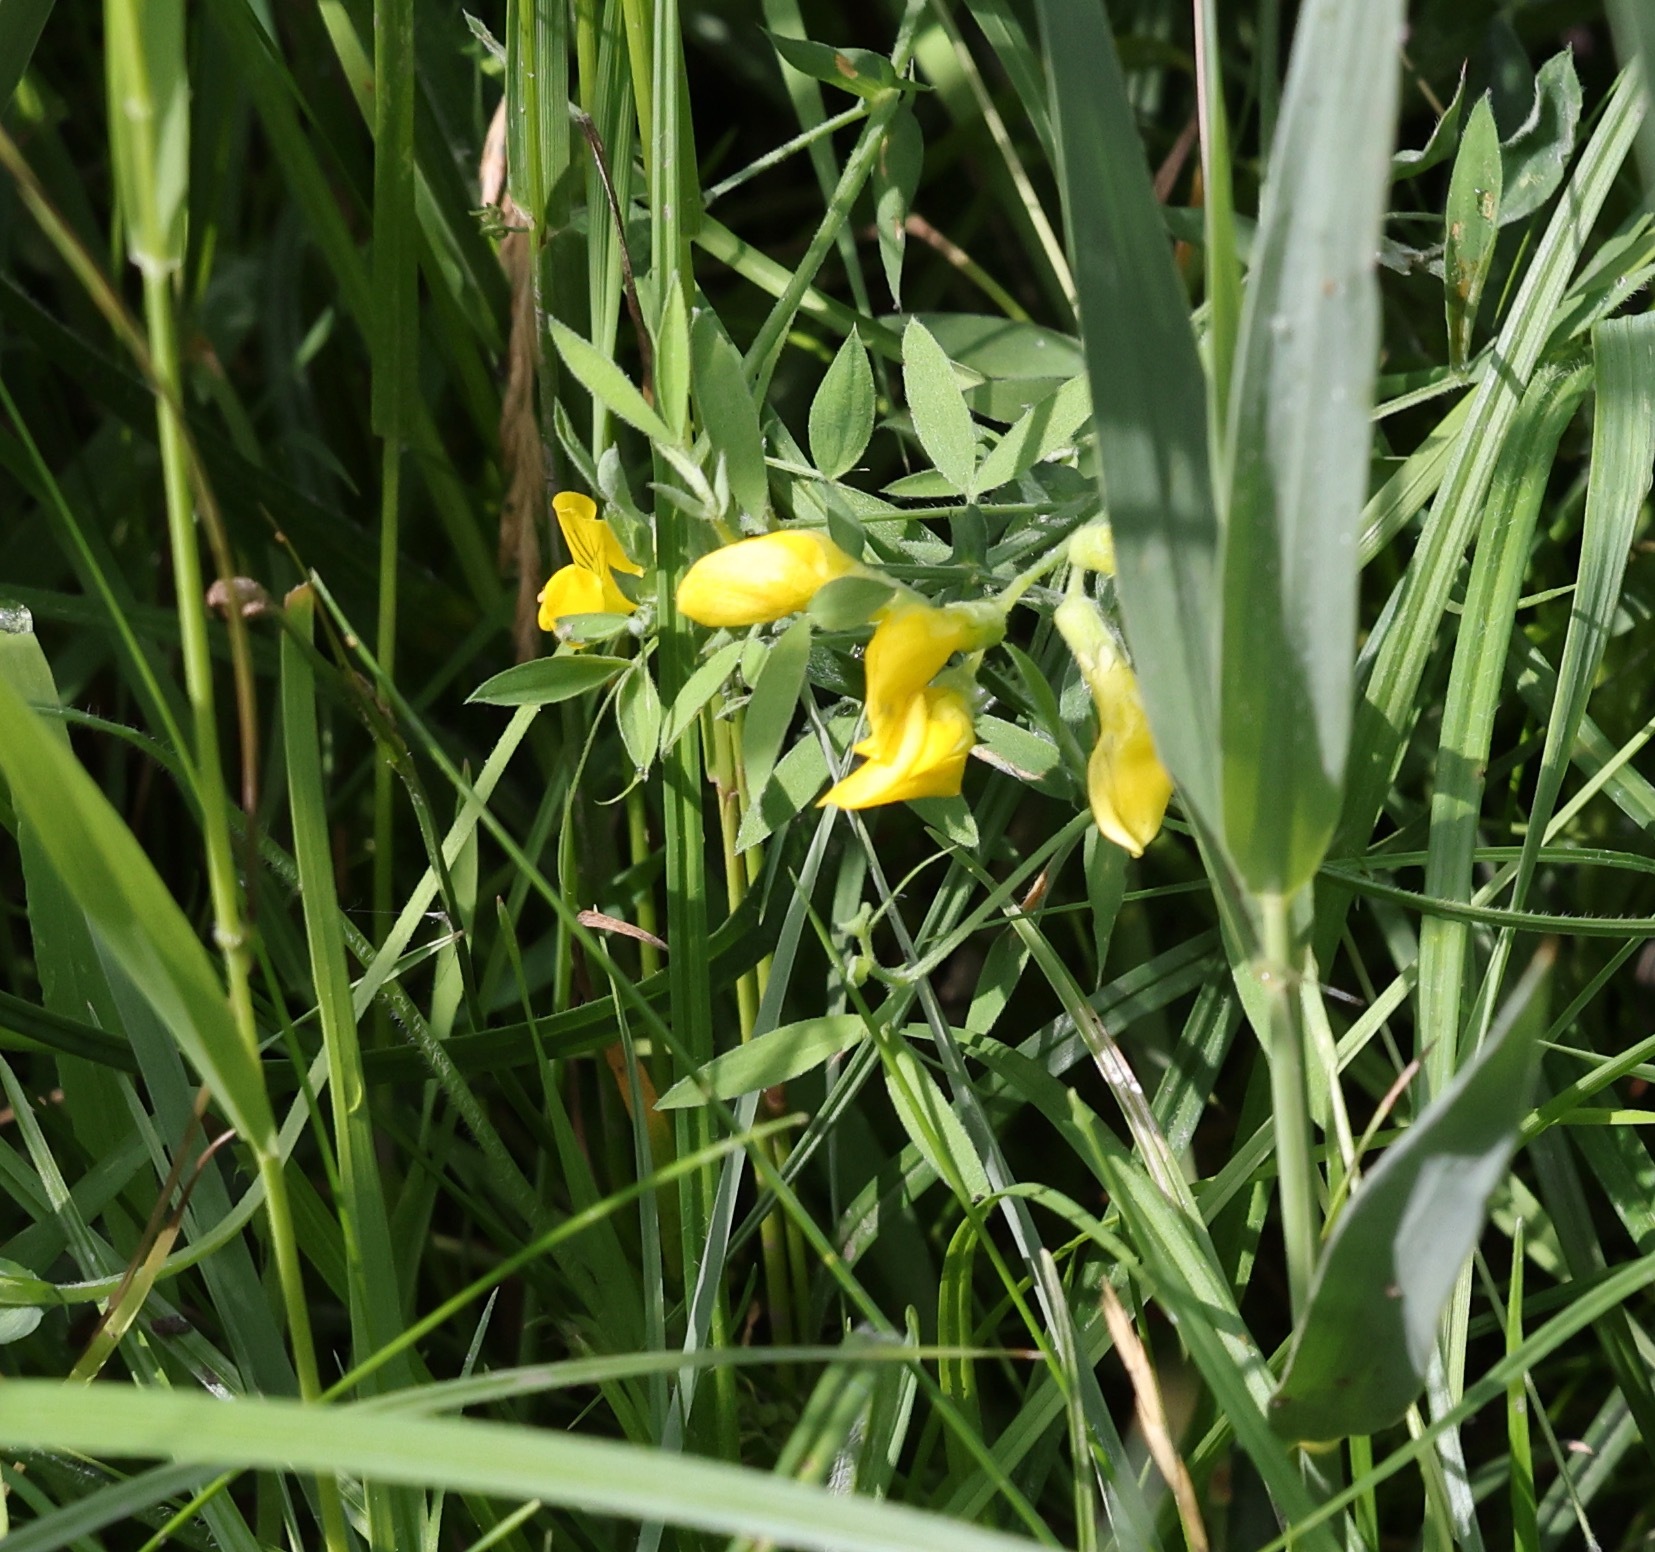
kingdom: Plantae
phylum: Tracheophyta
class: Magnoliopsida
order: Fabales
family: Fabaceae
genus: Lathyrus
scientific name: Lathyrus pratensis
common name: Meadow vetchling
